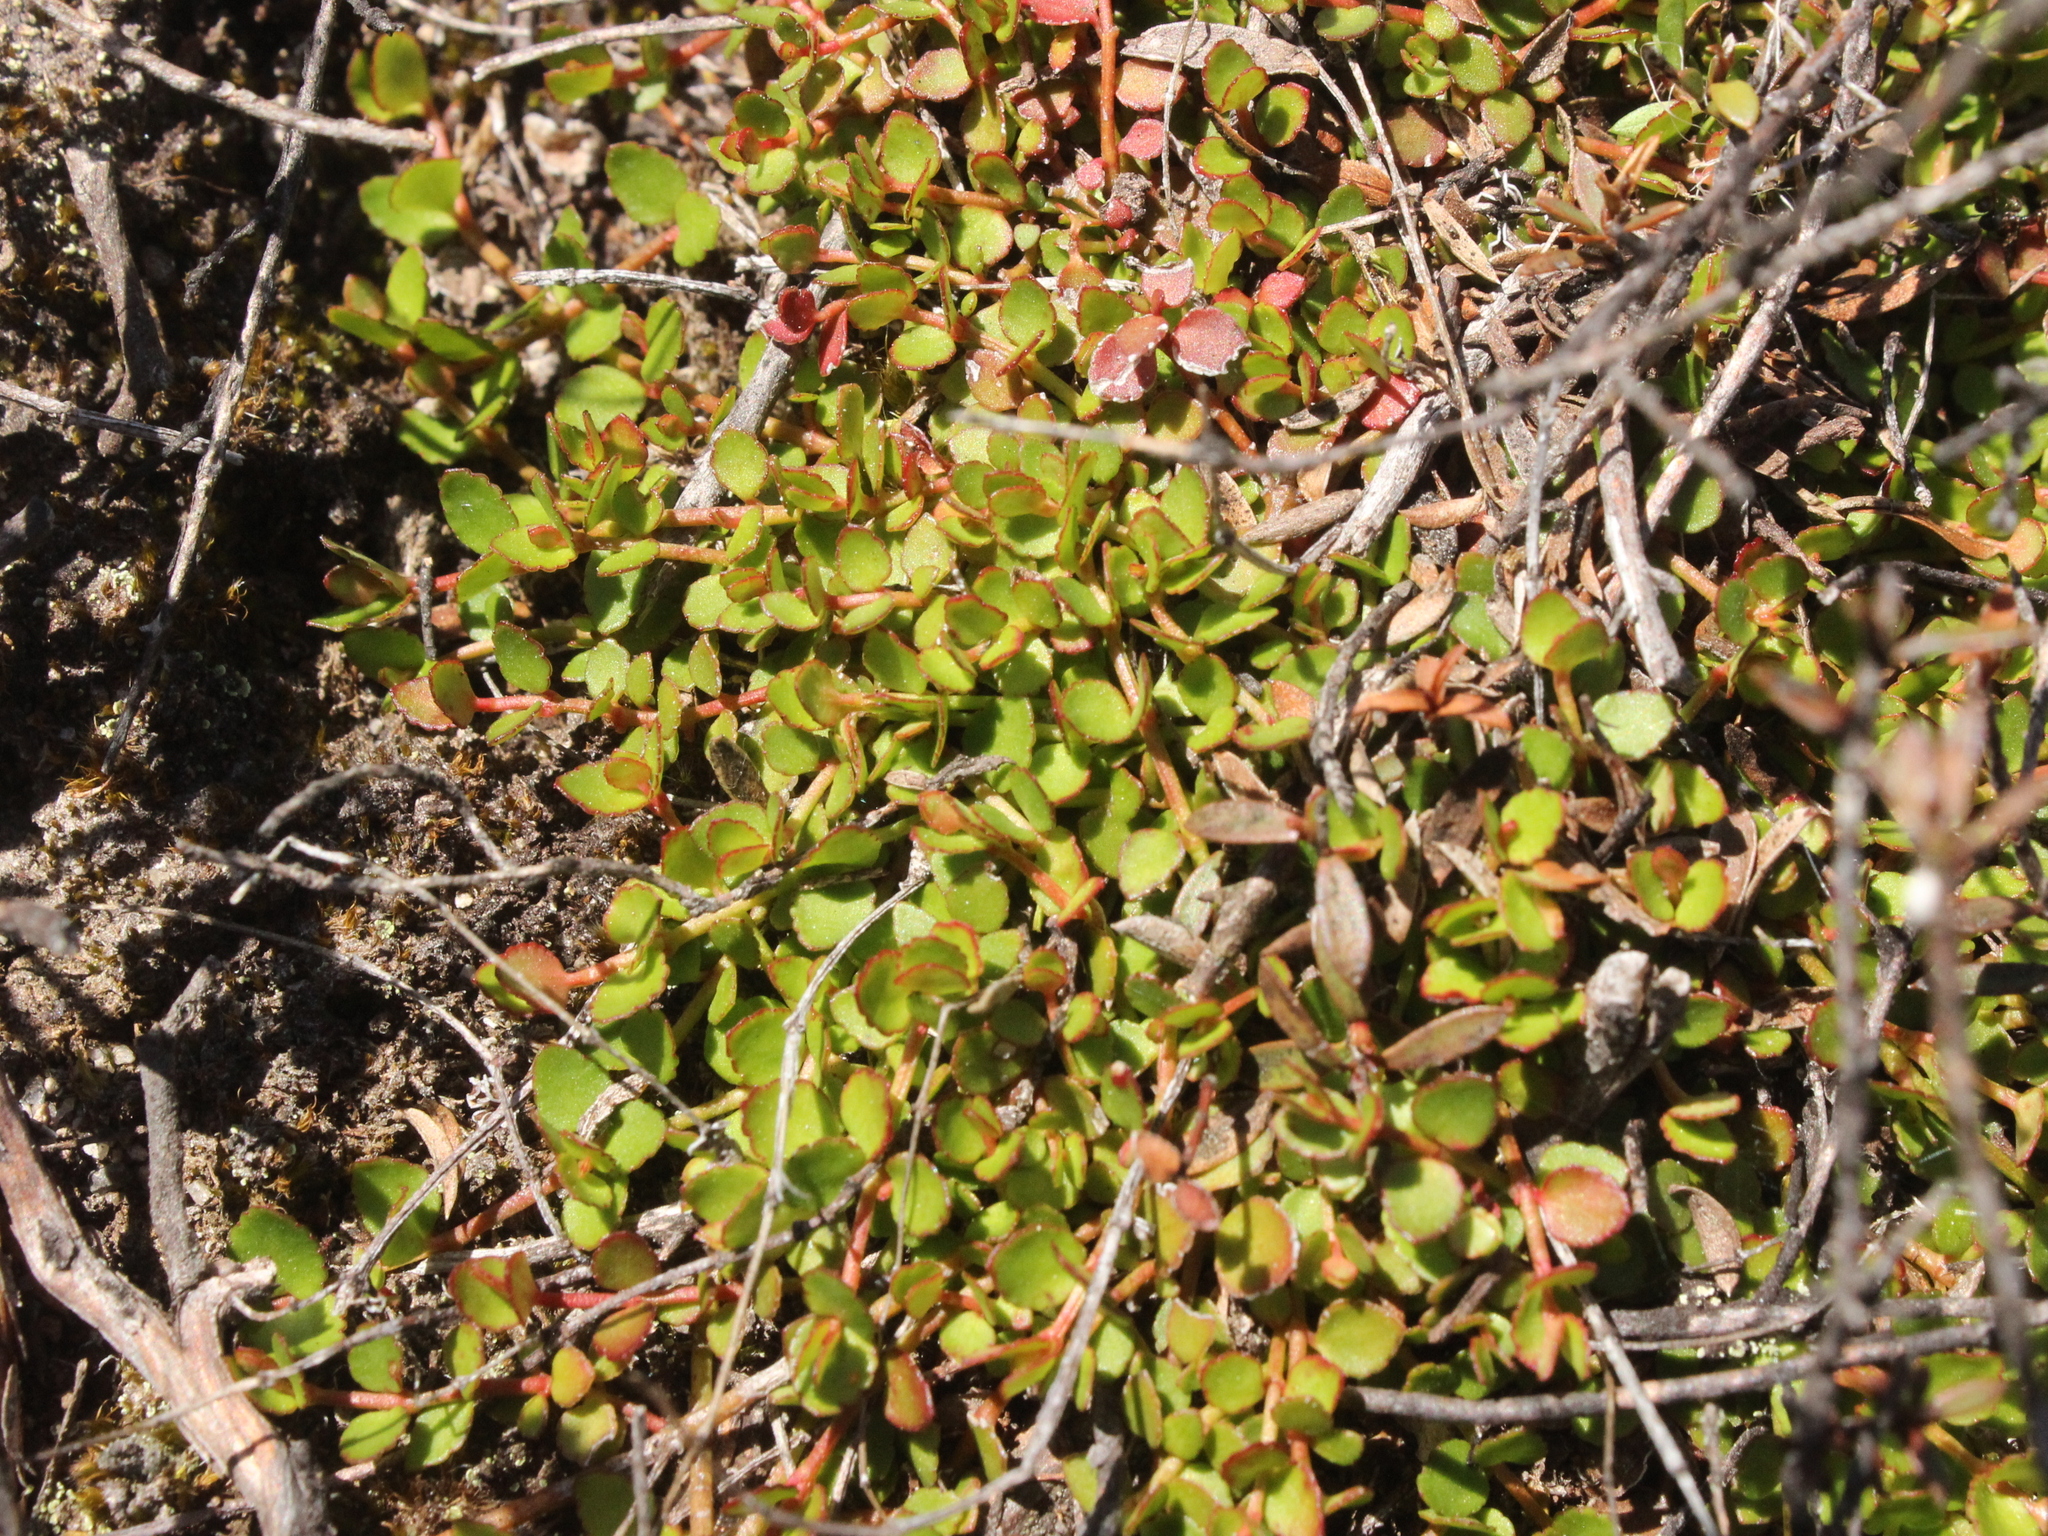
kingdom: Plantae
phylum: Tracheophyta
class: Magnoliopsida
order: Saxifragales
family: Haloragaceae
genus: Gonocarpus
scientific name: Gonocarpus micranthus
